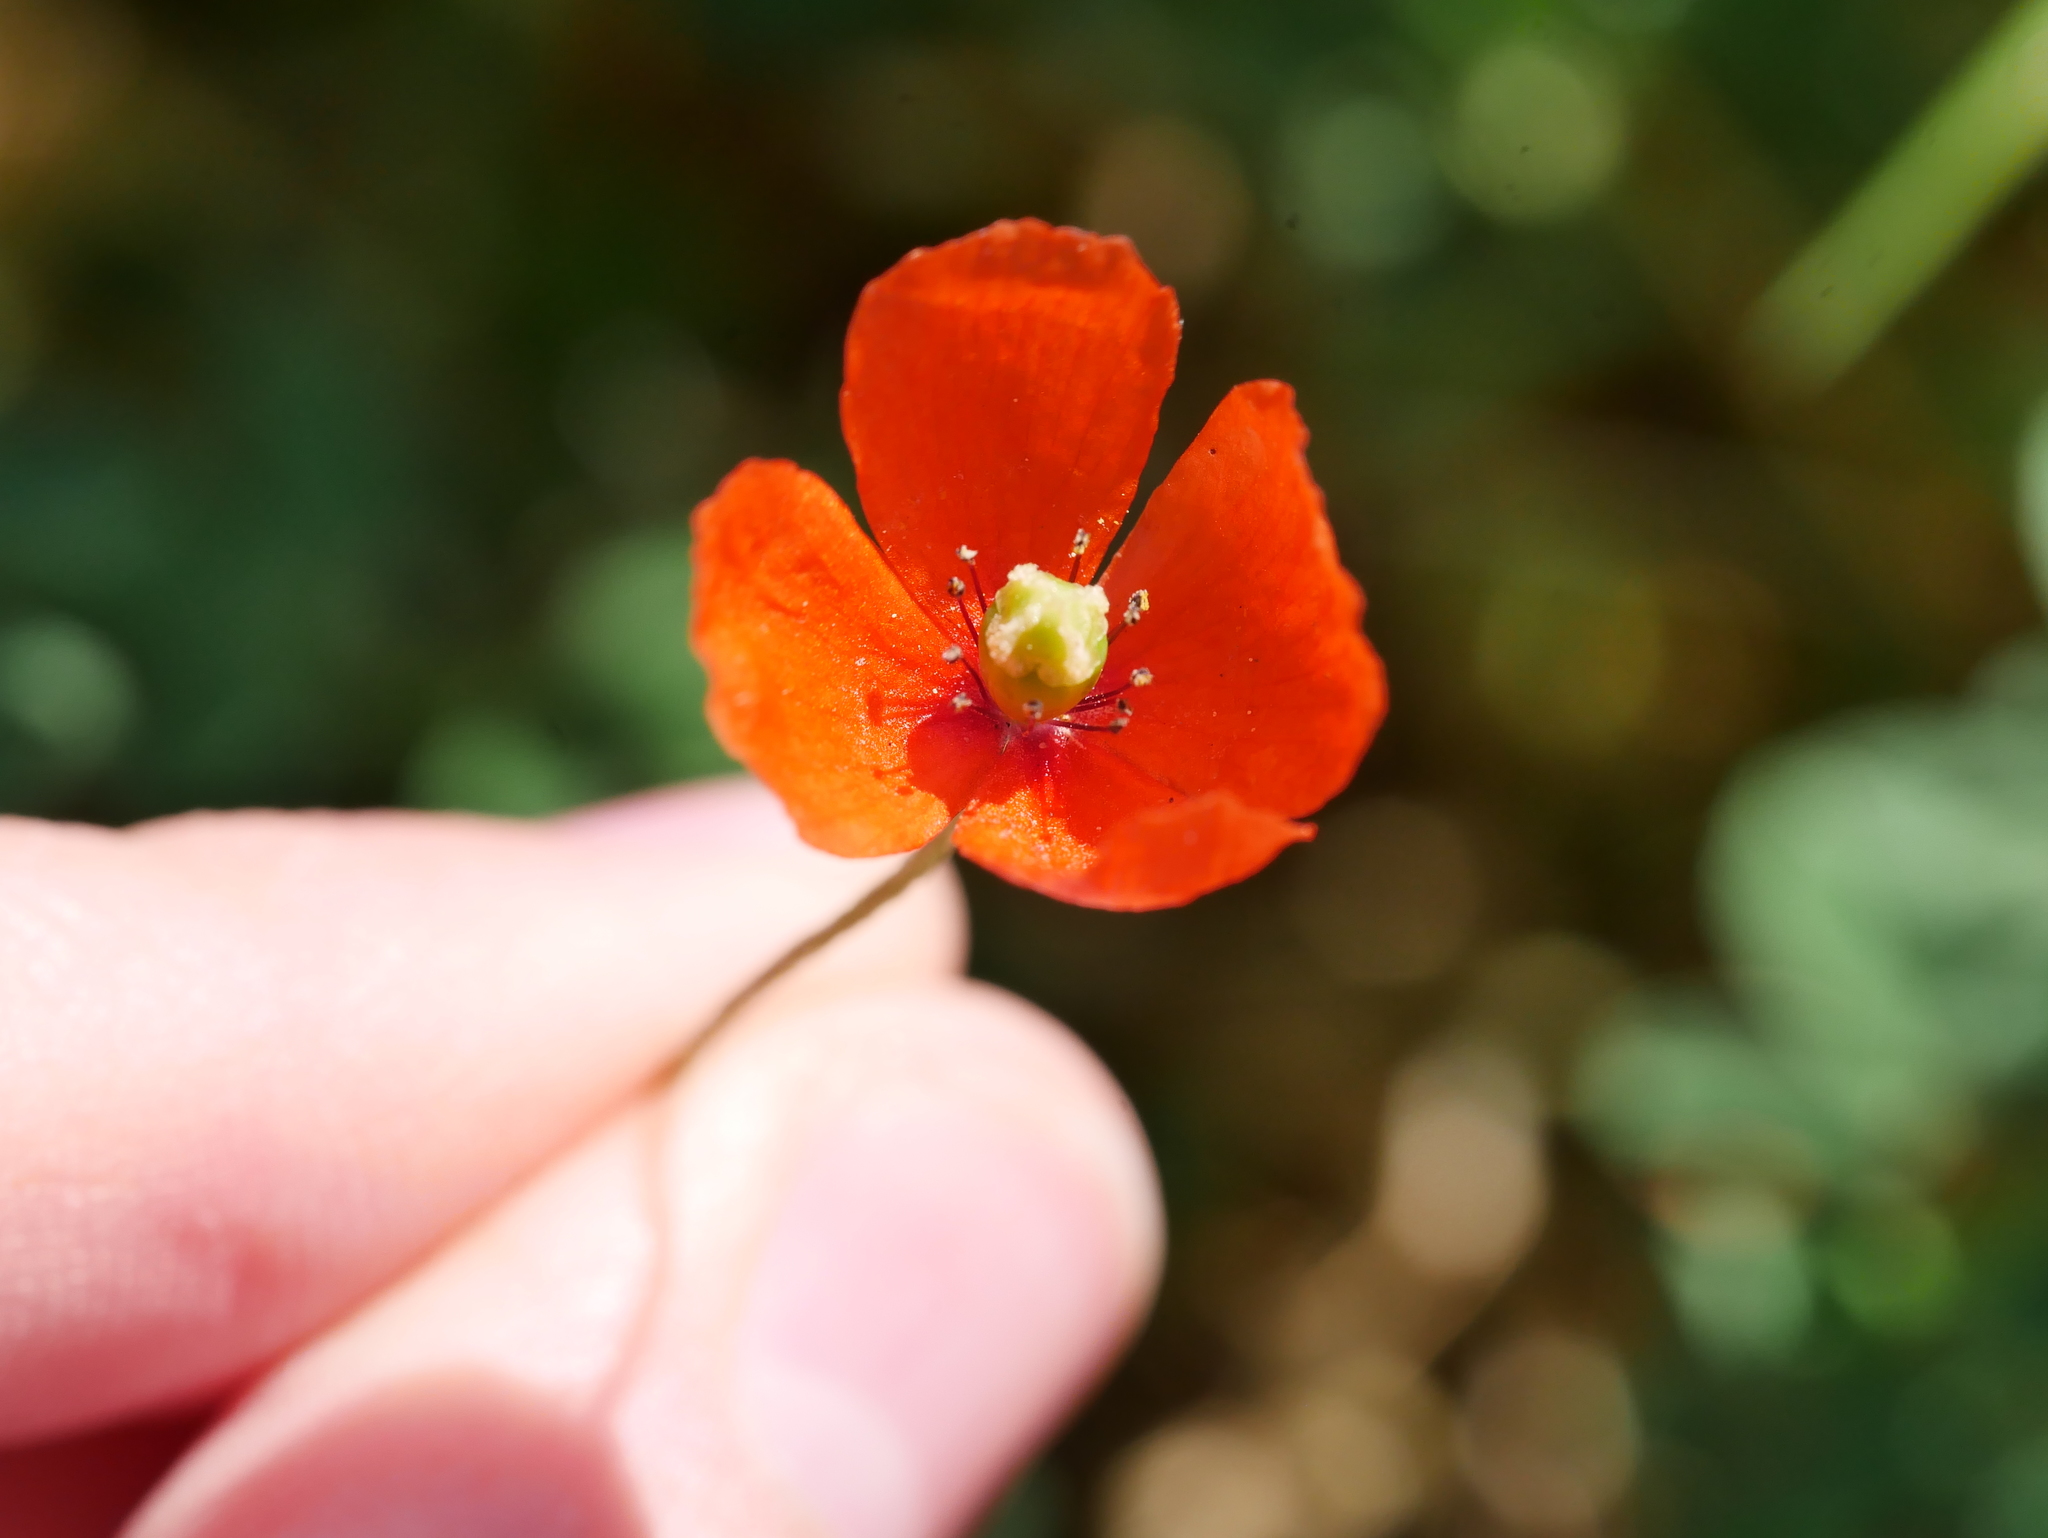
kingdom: Plantae
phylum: Tracheophyta
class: Magnoliopsida
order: Ranunculales
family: Papaveraceae
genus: Papaver
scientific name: Papaver dubium
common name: Long-headed poppy
